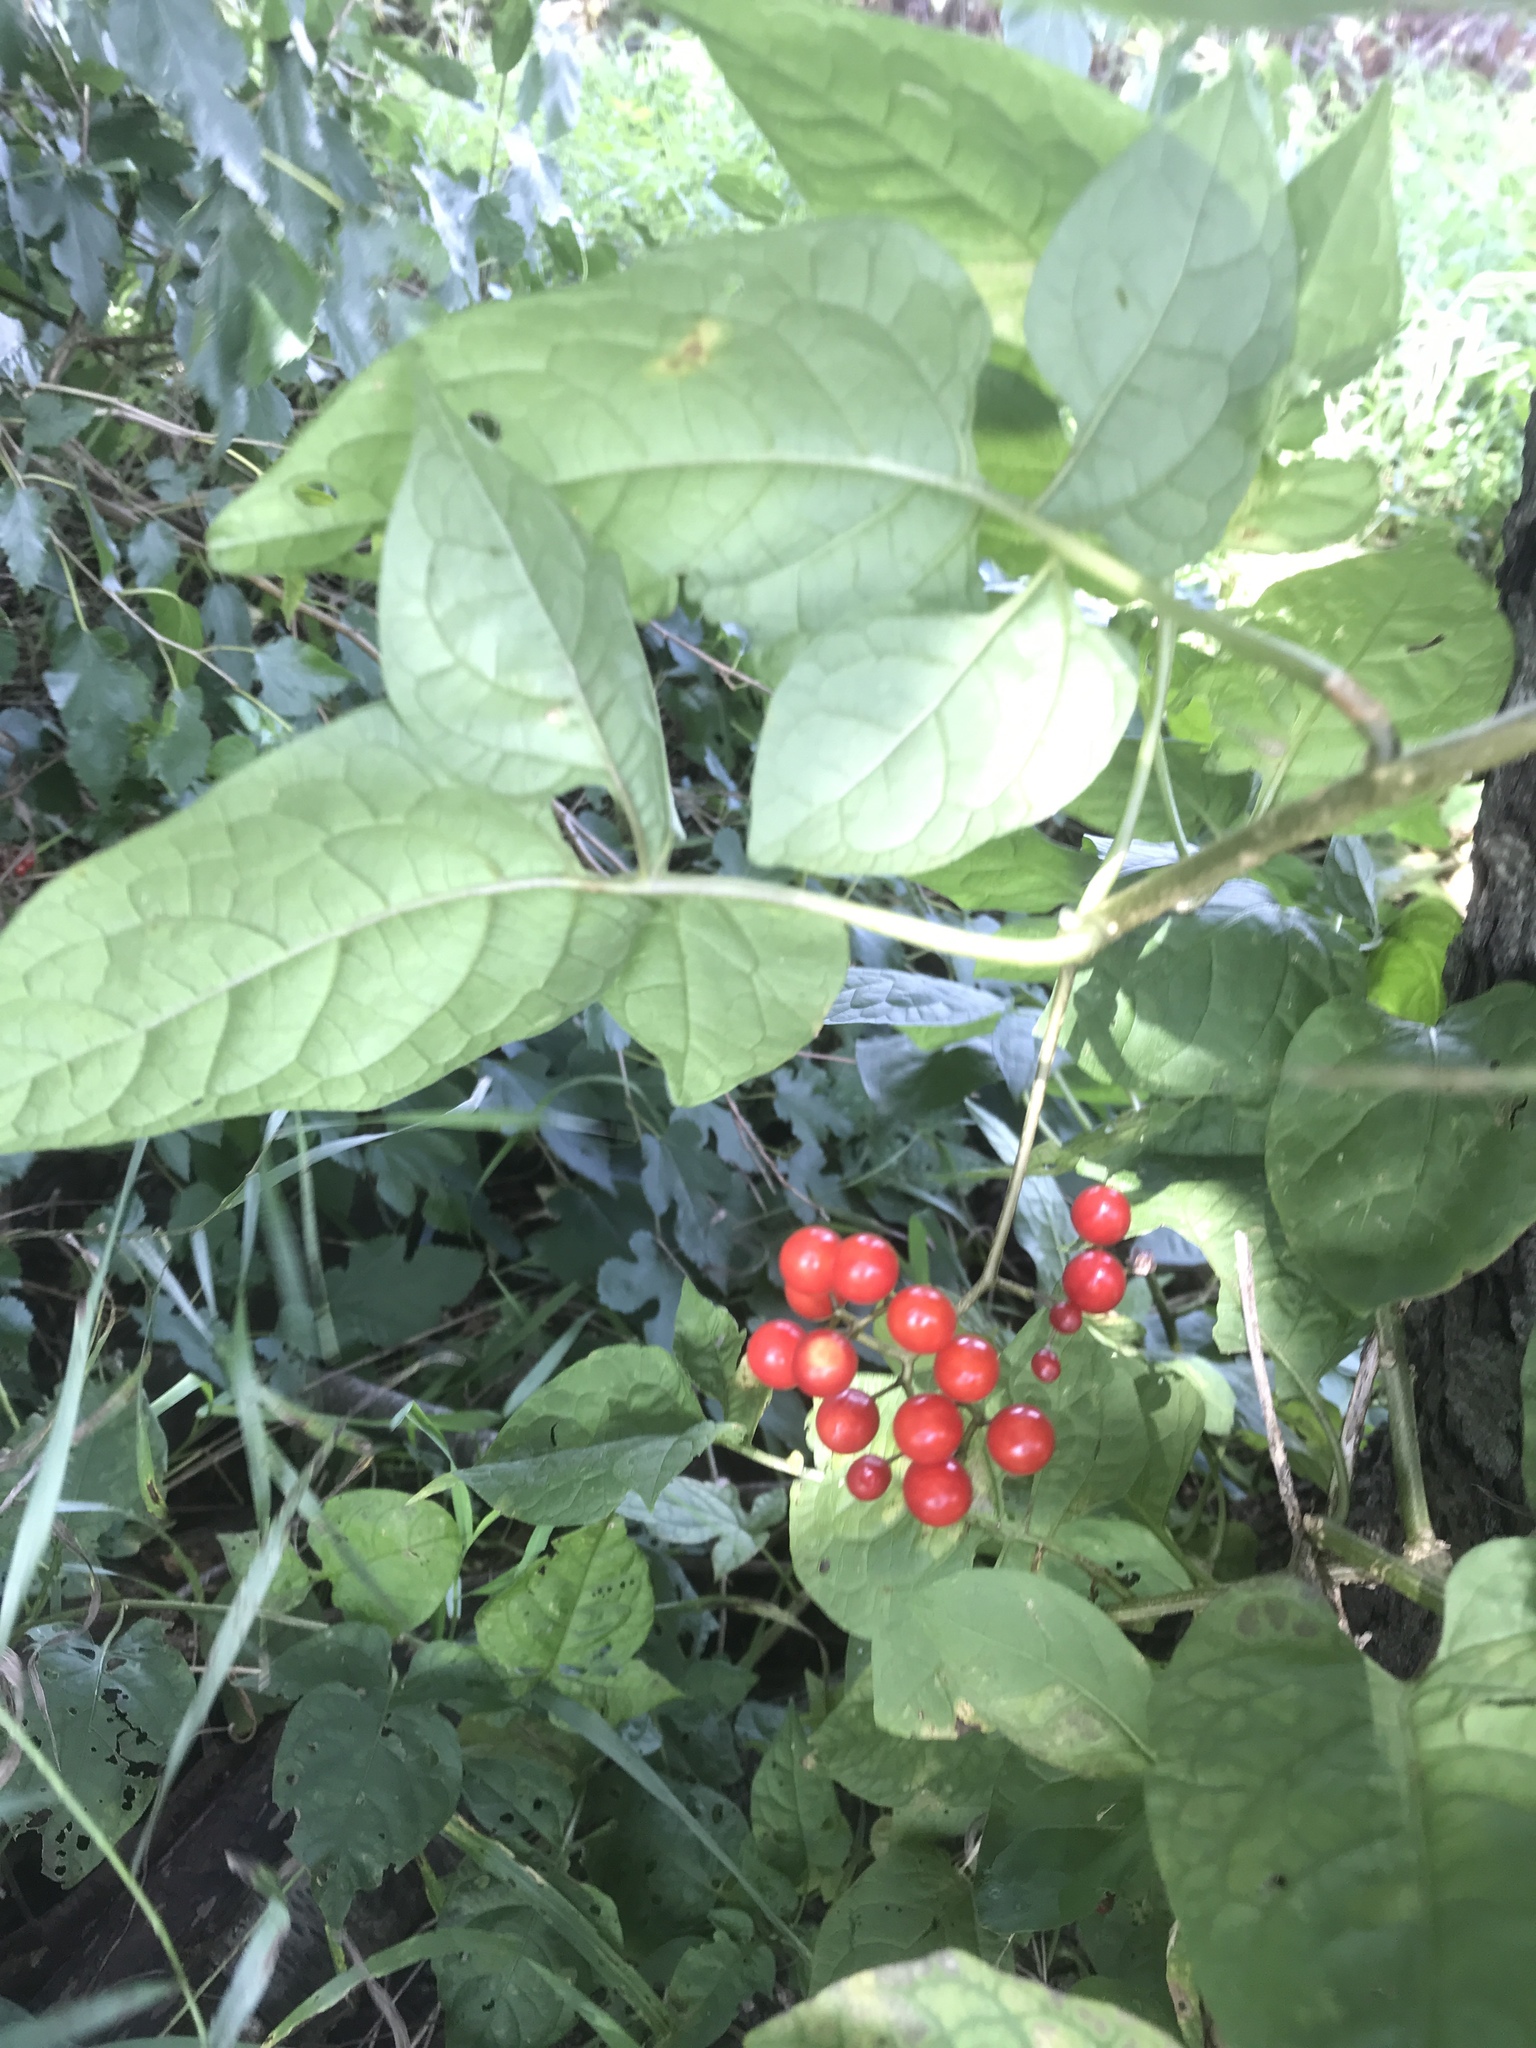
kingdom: Plantae
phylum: Tracheophyta
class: Magnoliopsida
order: Solanales
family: Solanaceae
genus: Solanum
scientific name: Solanum dulcamara
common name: Climbing nightshade
